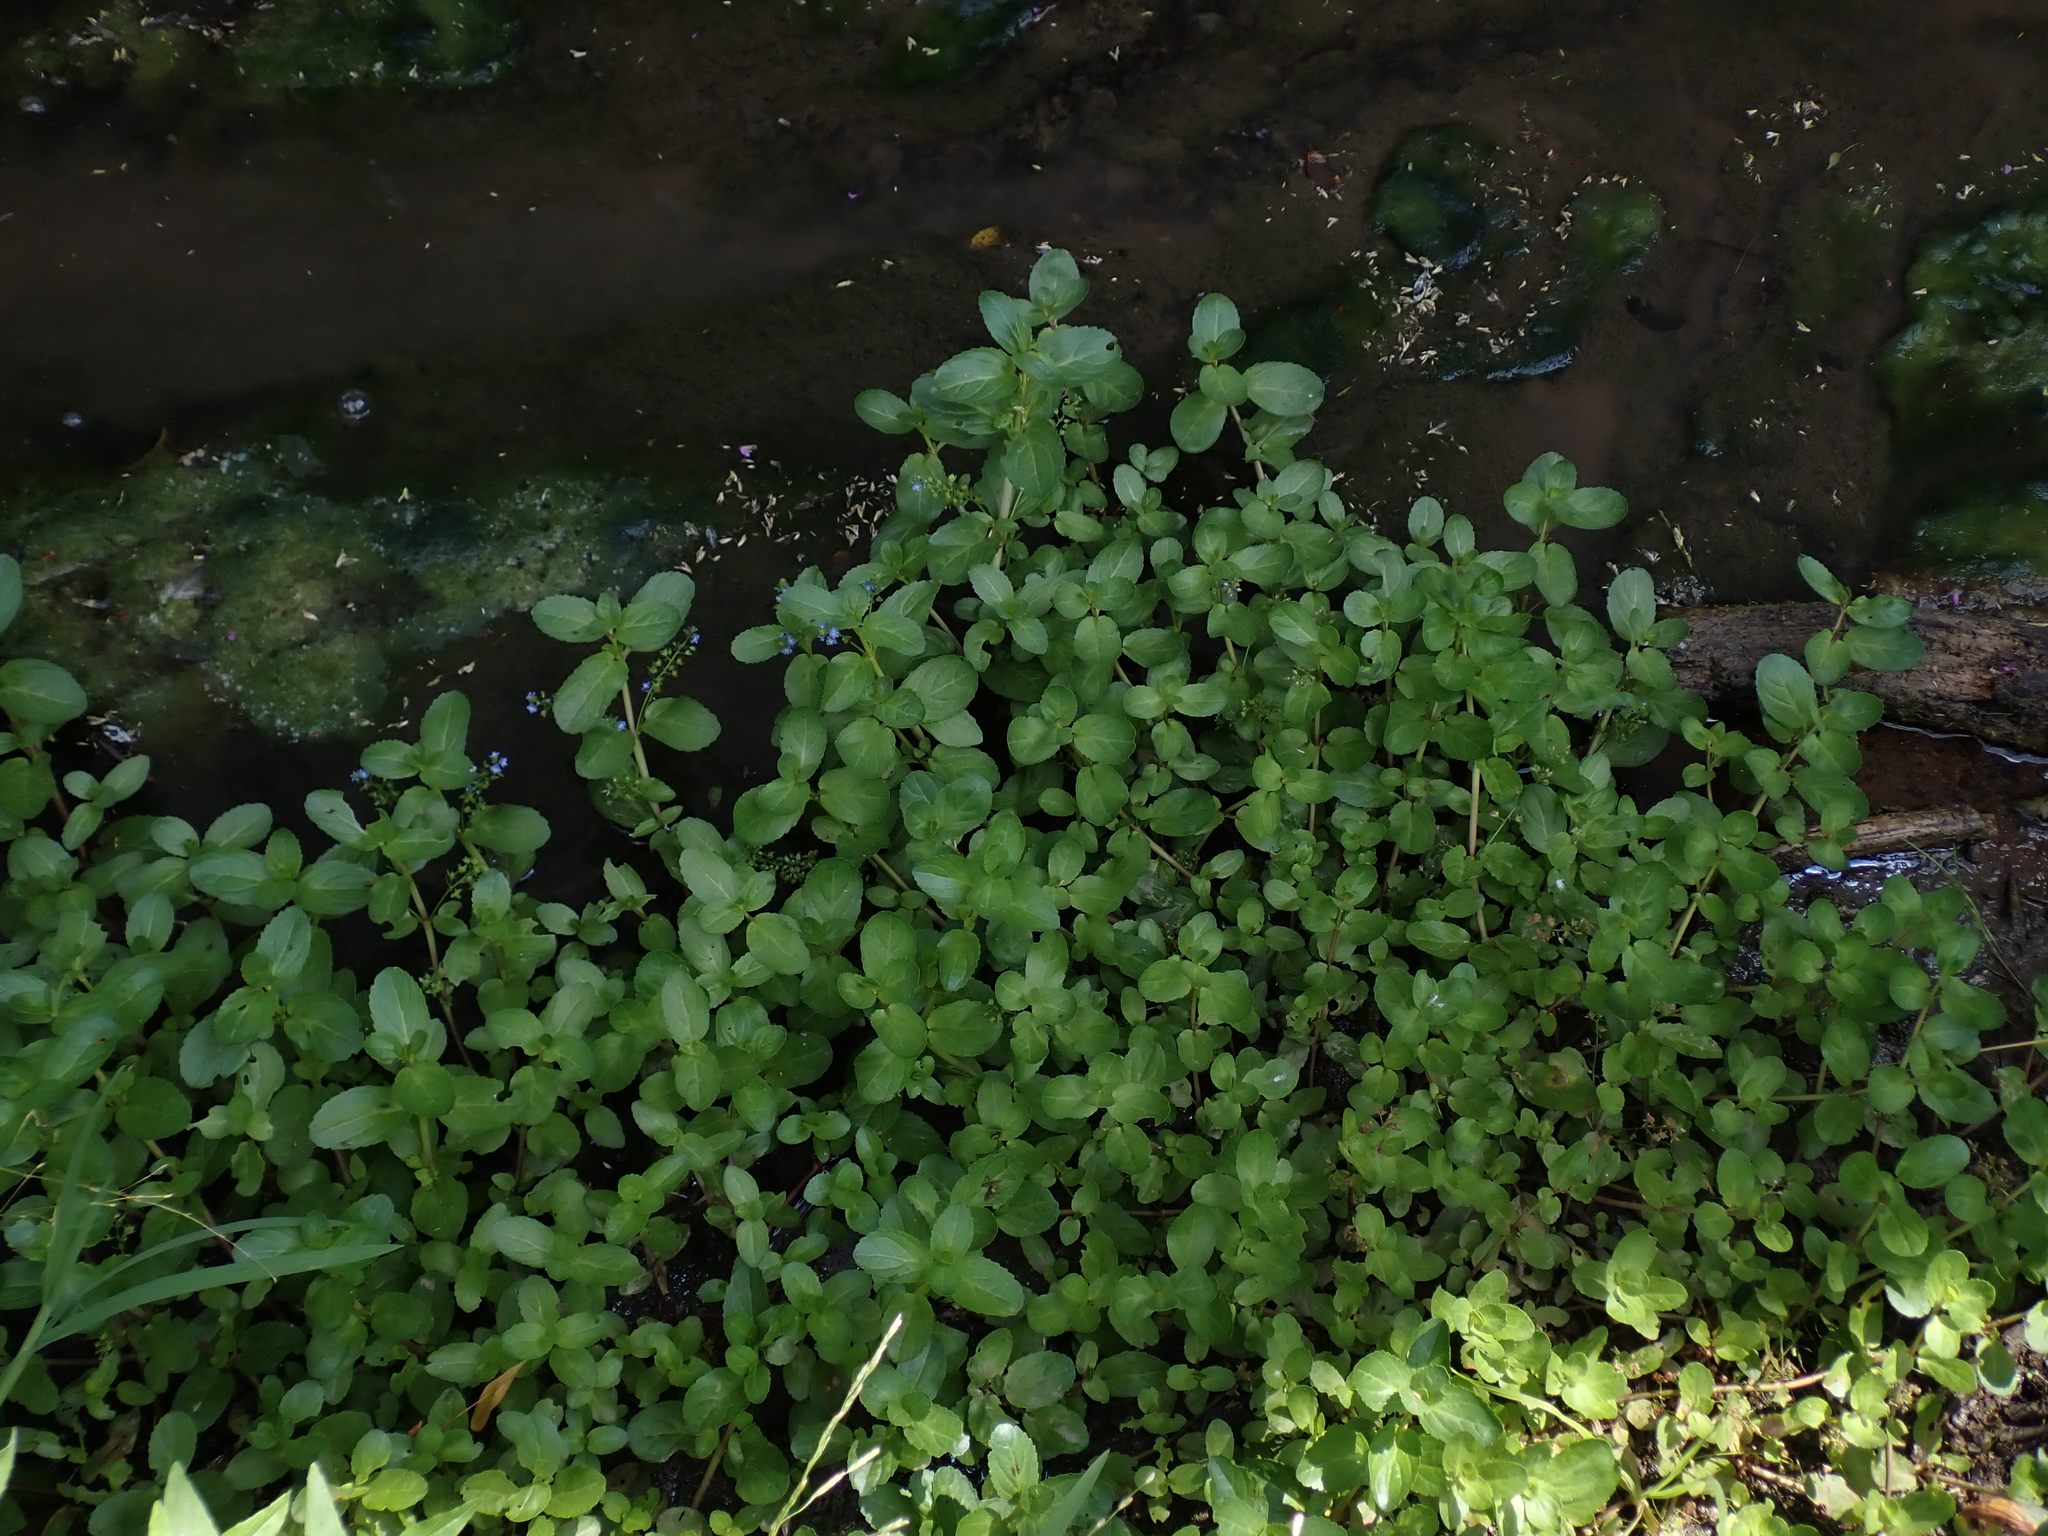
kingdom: Plantae
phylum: Tracheophyta
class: Magnoliopsida
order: Lamiales
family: Plantaginaceae
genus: Veronica
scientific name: Veronica beccabunga
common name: Brooklime
